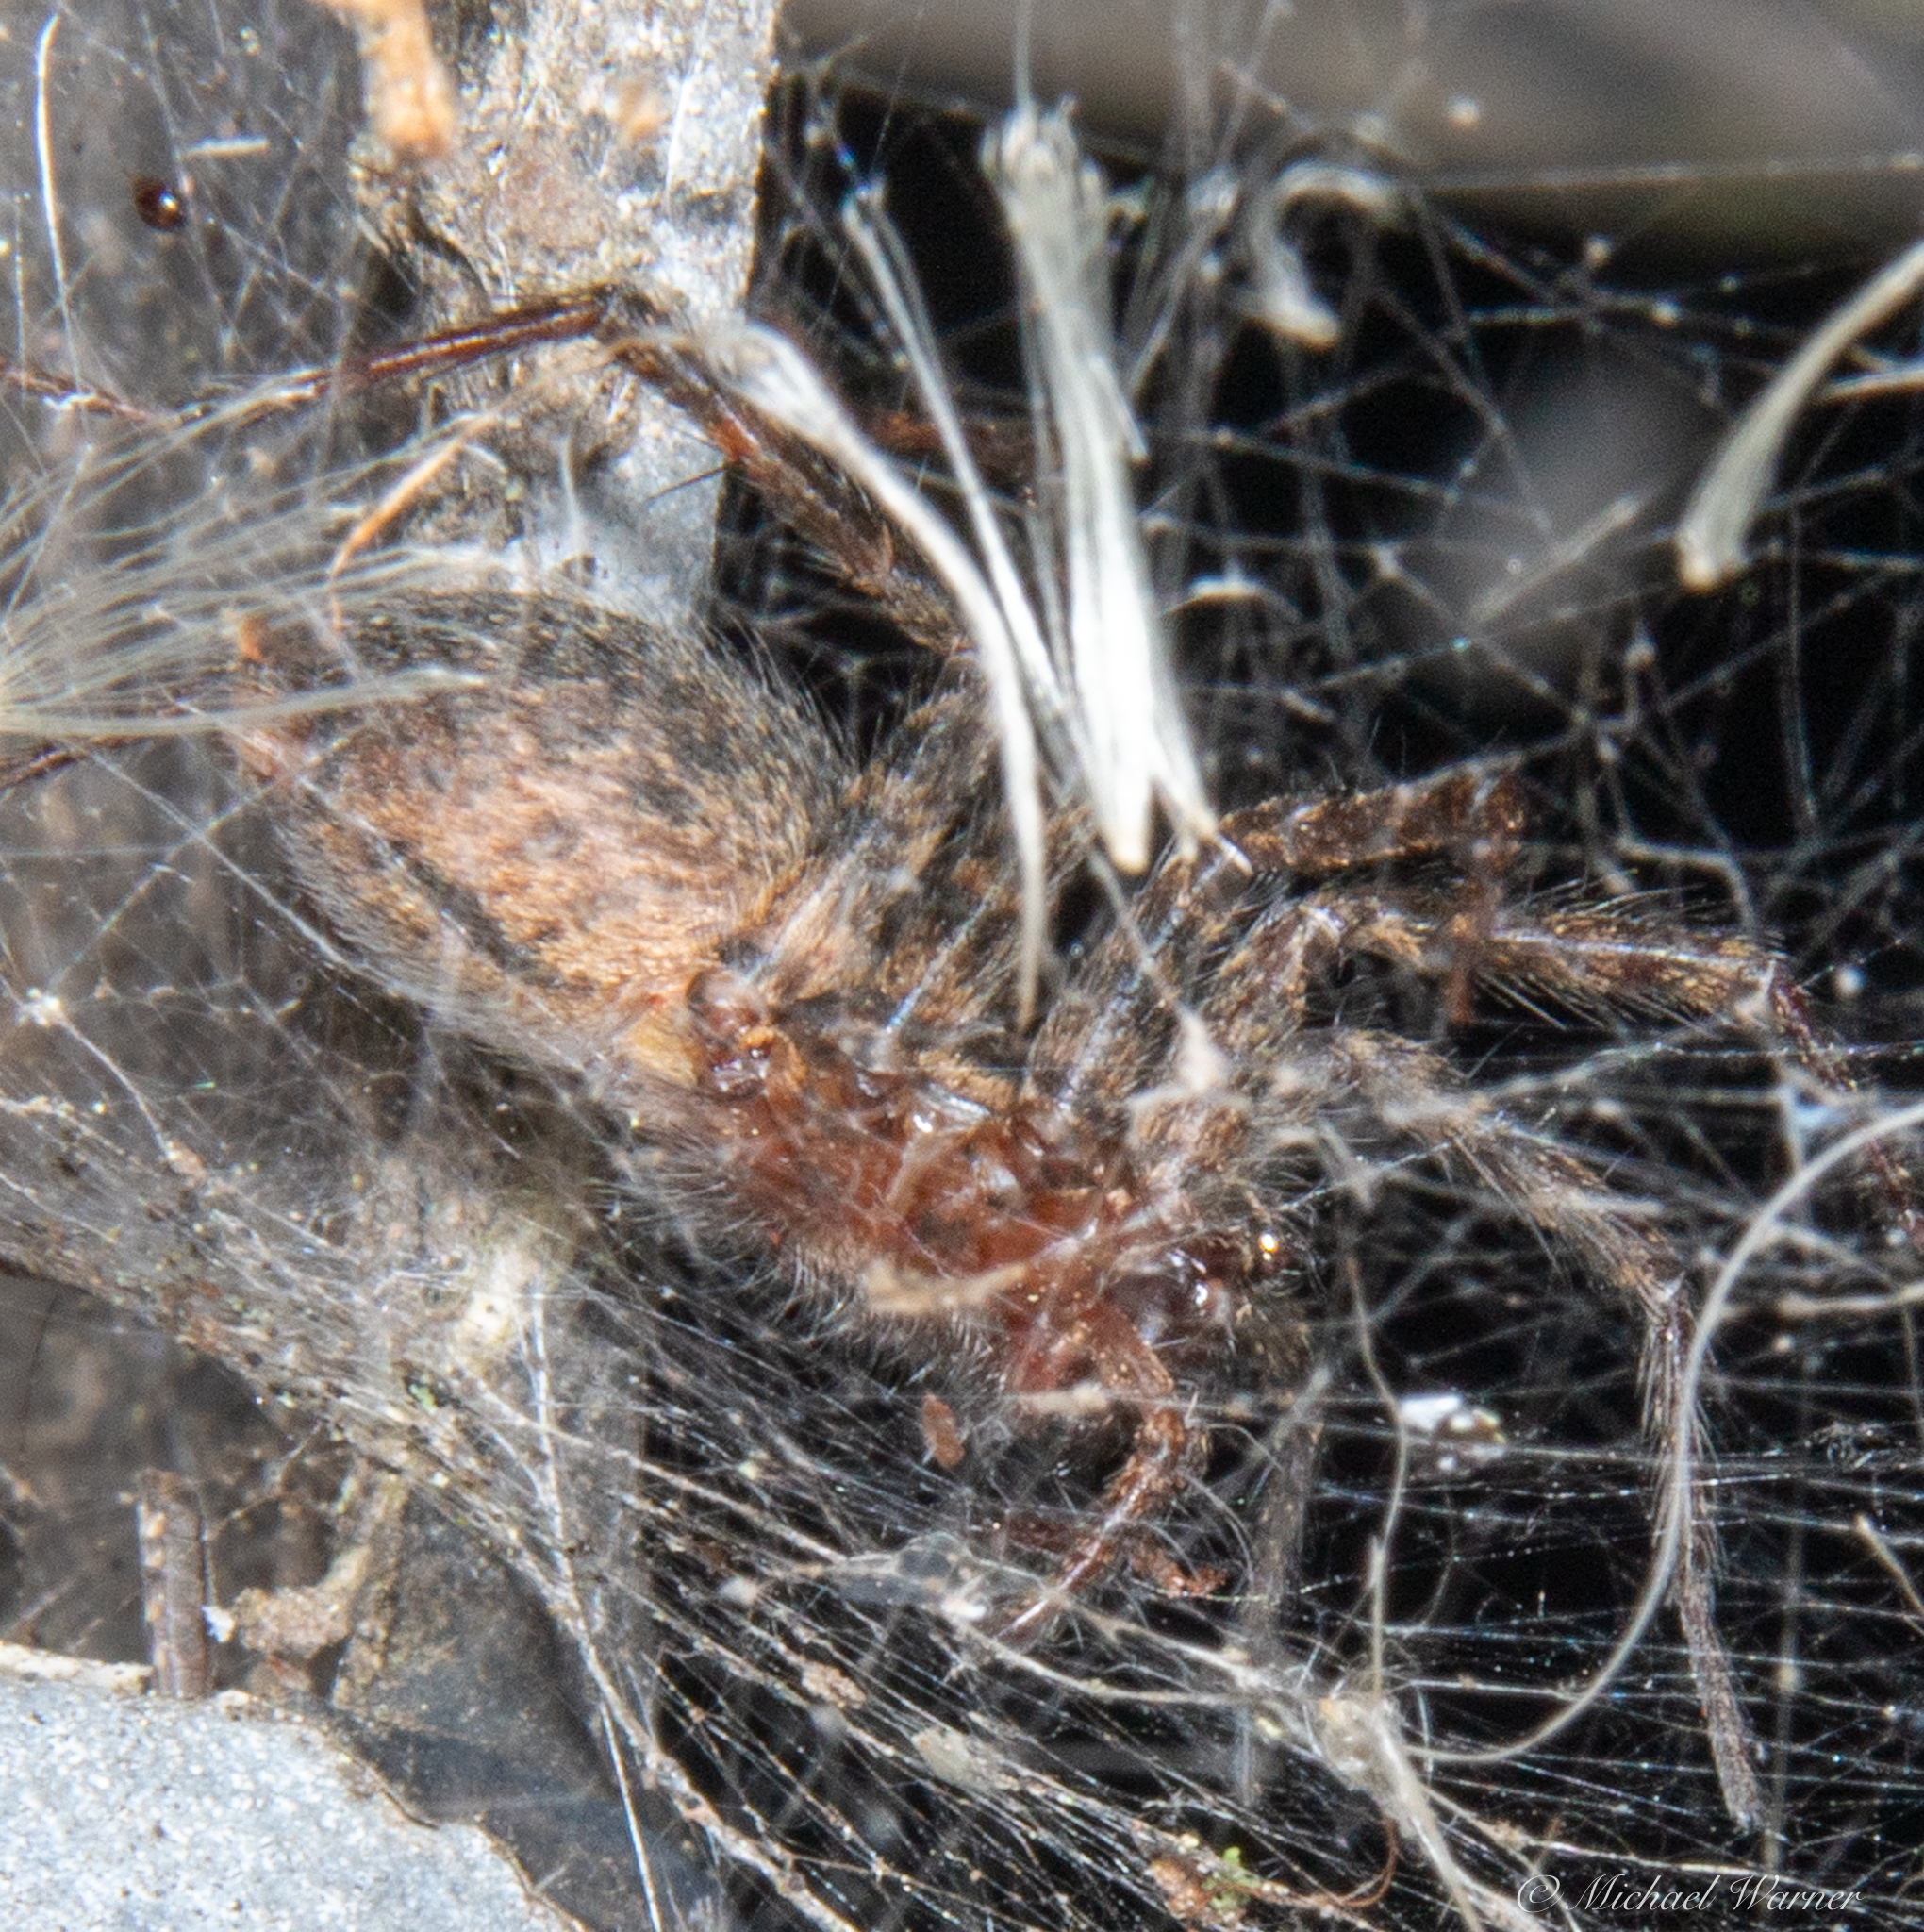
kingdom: Animalia
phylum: Arthropoda
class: Arachnida
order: Araneae
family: Agelenidae
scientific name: Agelenidae
